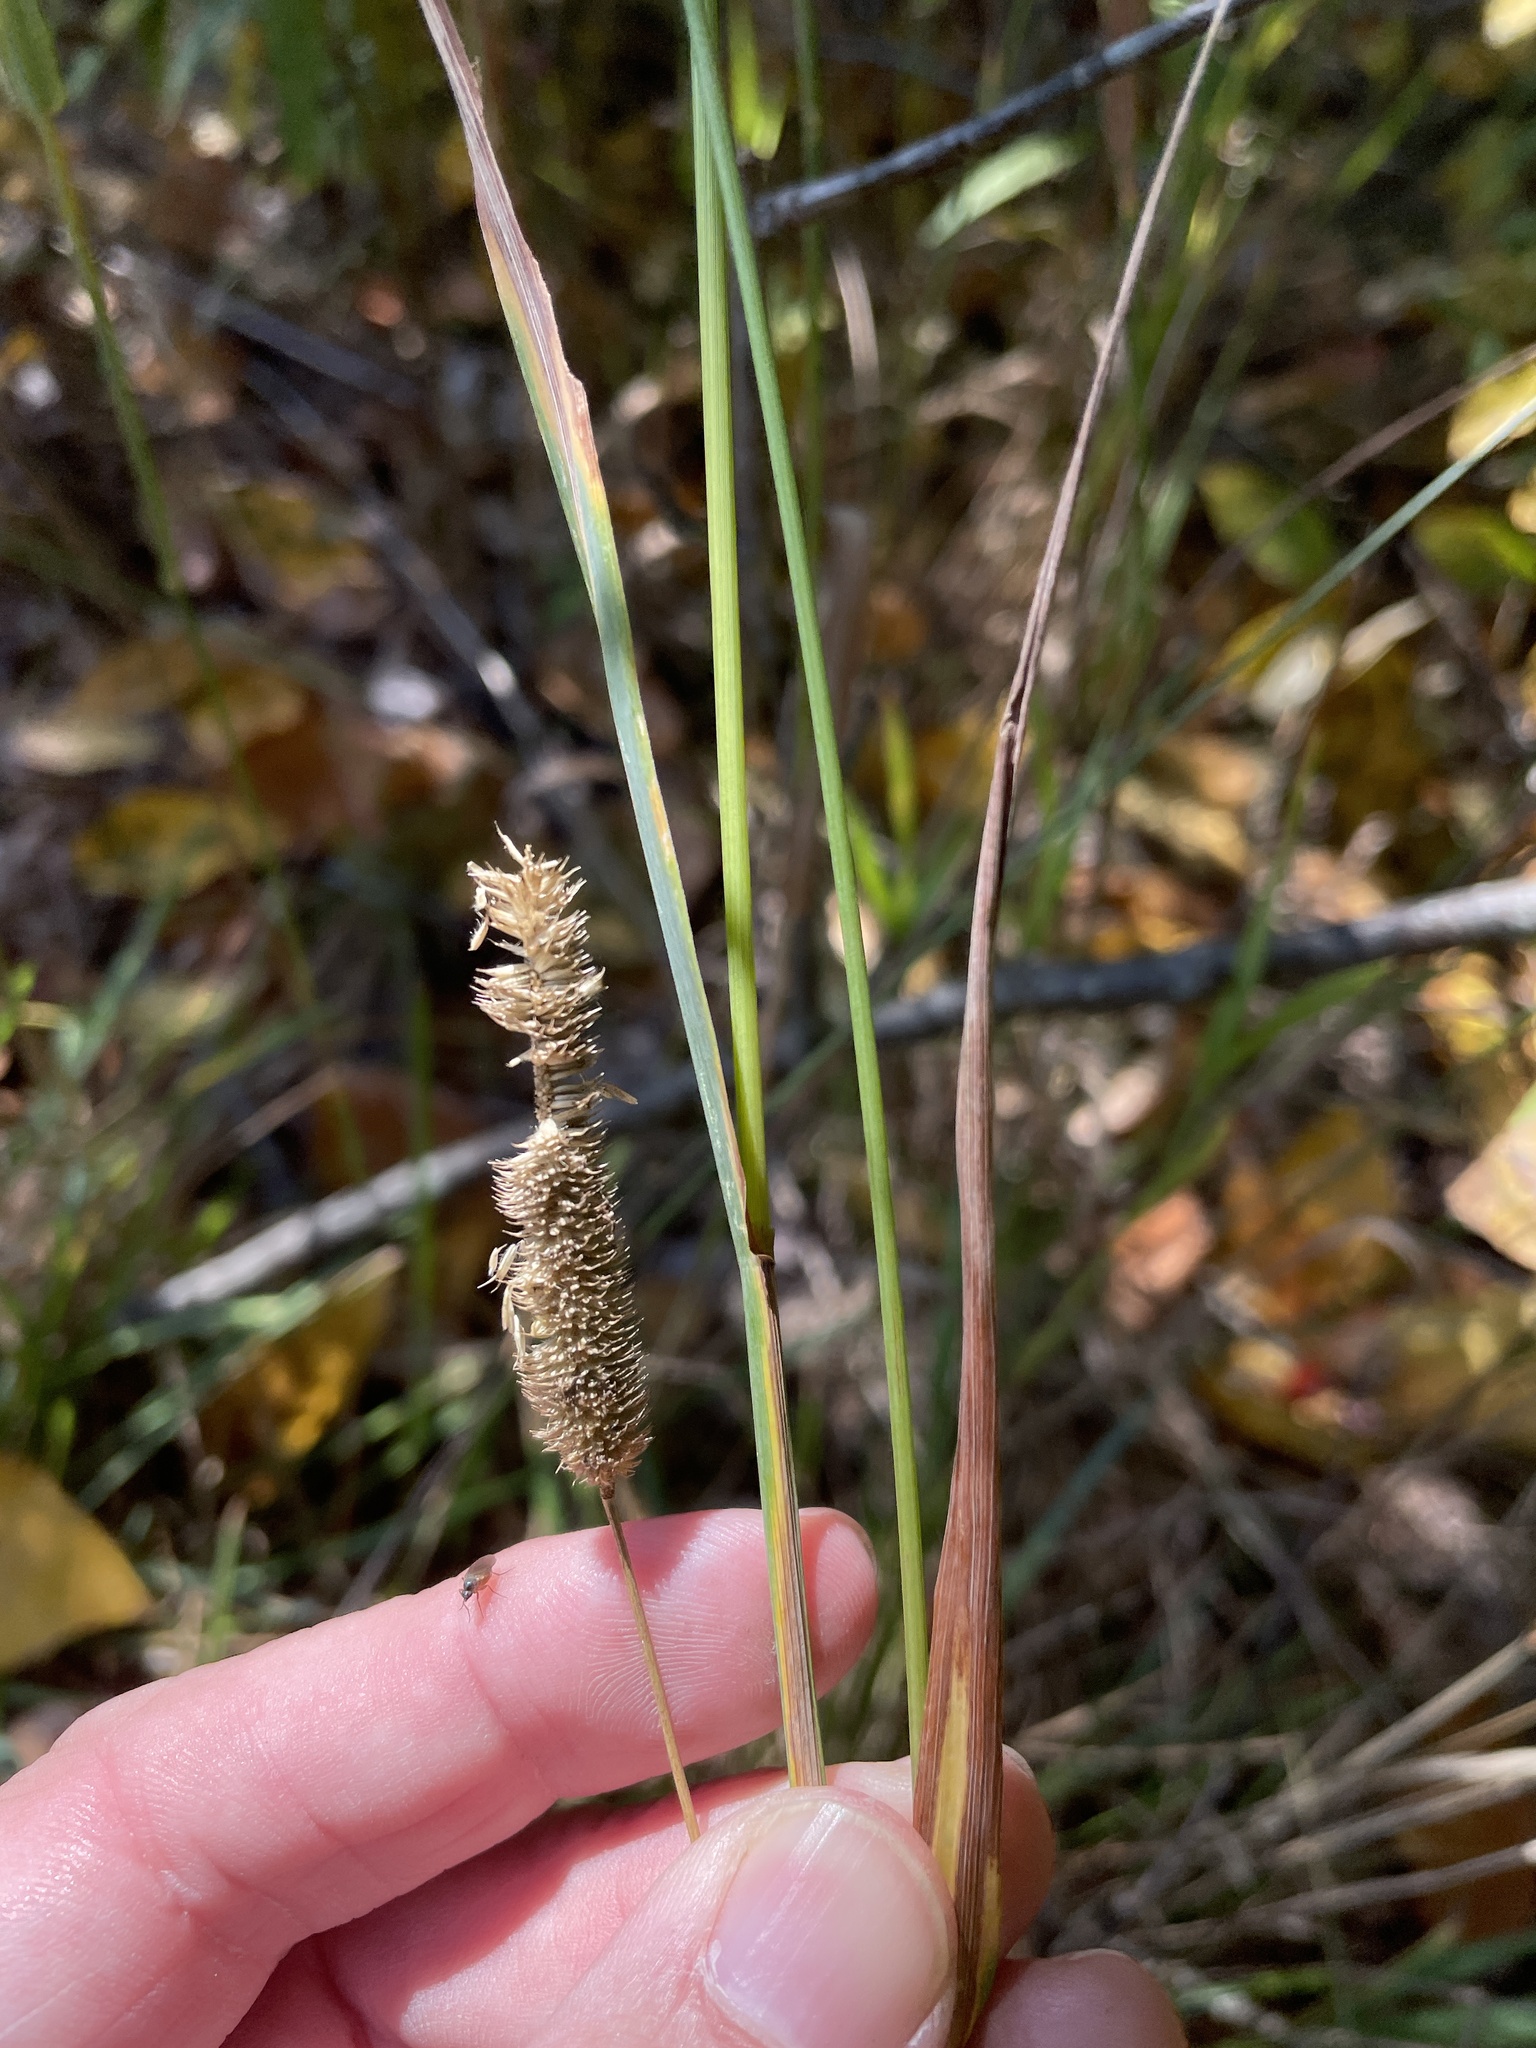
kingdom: Plantae
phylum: Tracheophyta
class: Liliopsida
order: Poales
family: Poaceae
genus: Phleum
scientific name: Phleum pratense
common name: Timothy grass
